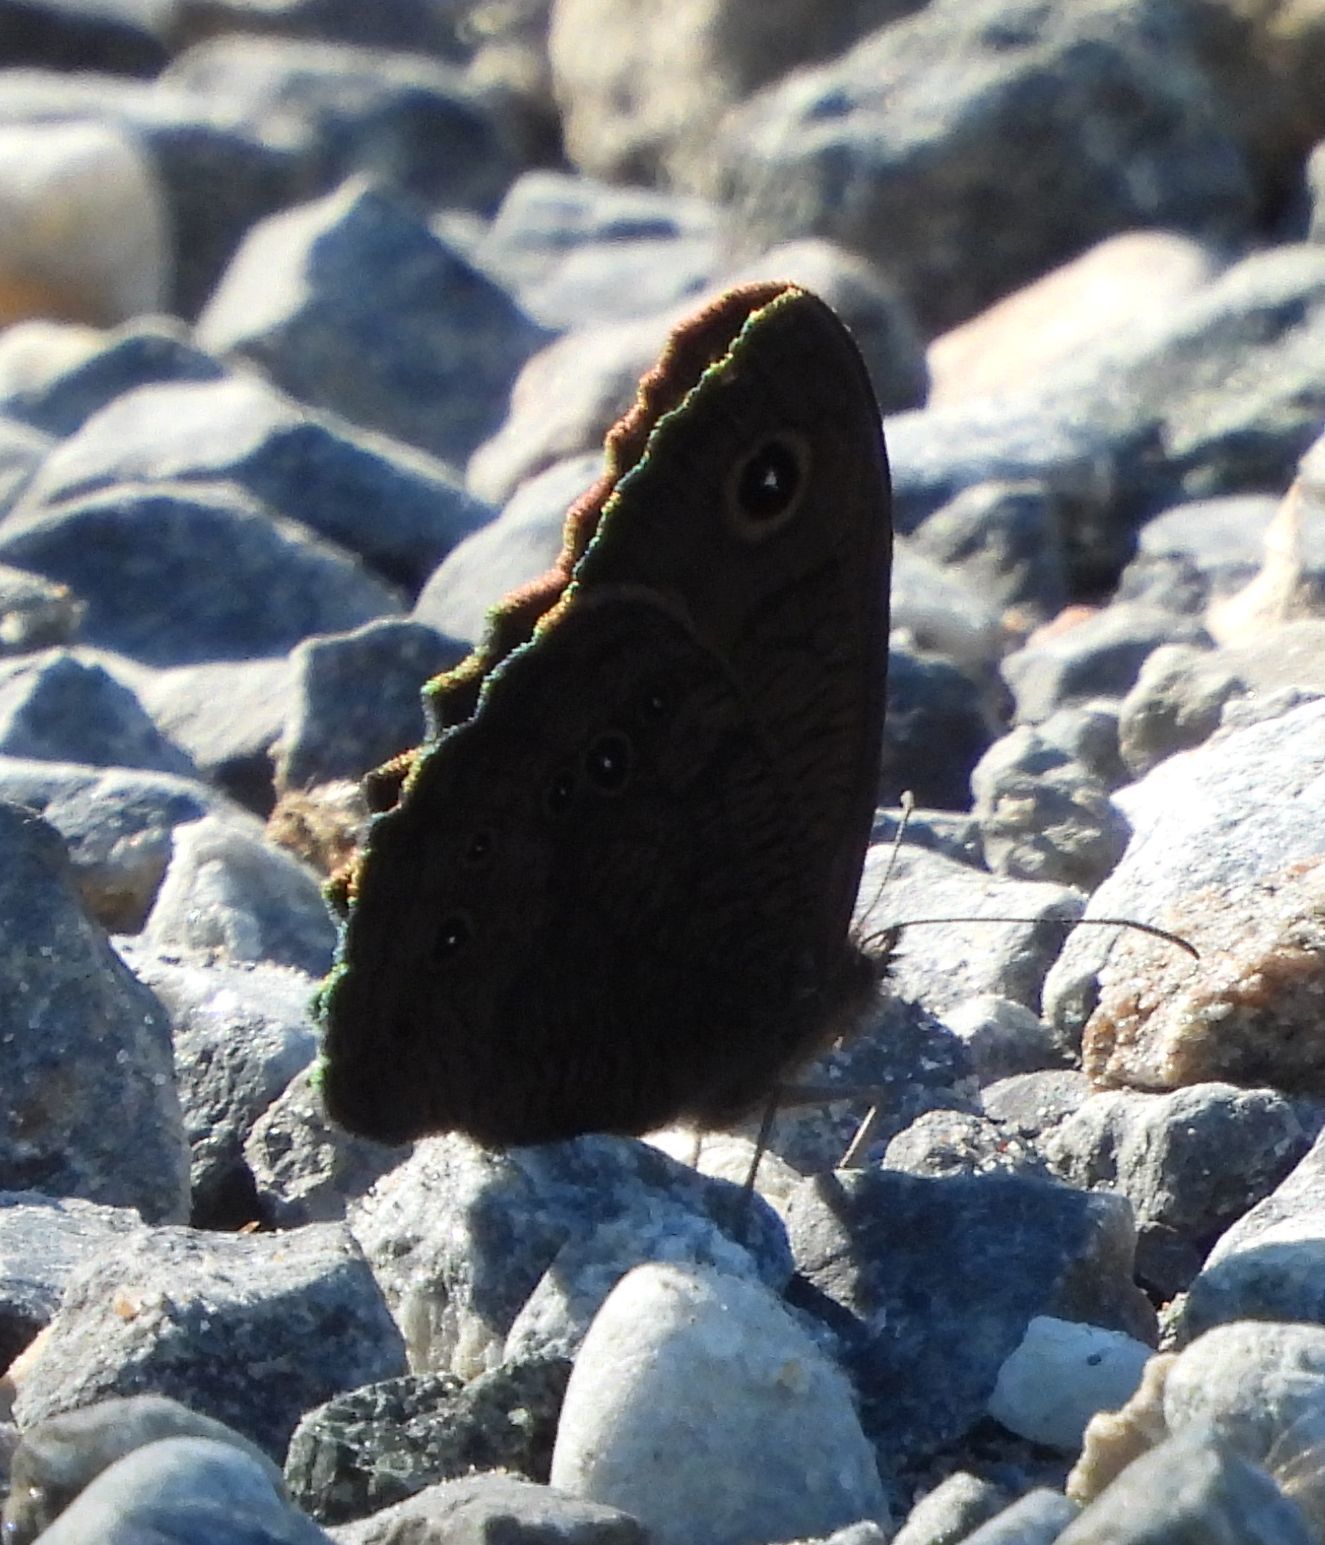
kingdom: Animalia
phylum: Arthropoda
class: Insecta
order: Lepidoptera
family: Nymphalidae
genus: Cercyonis
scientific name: Cercyonis pegala
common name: Common wood-nymph
